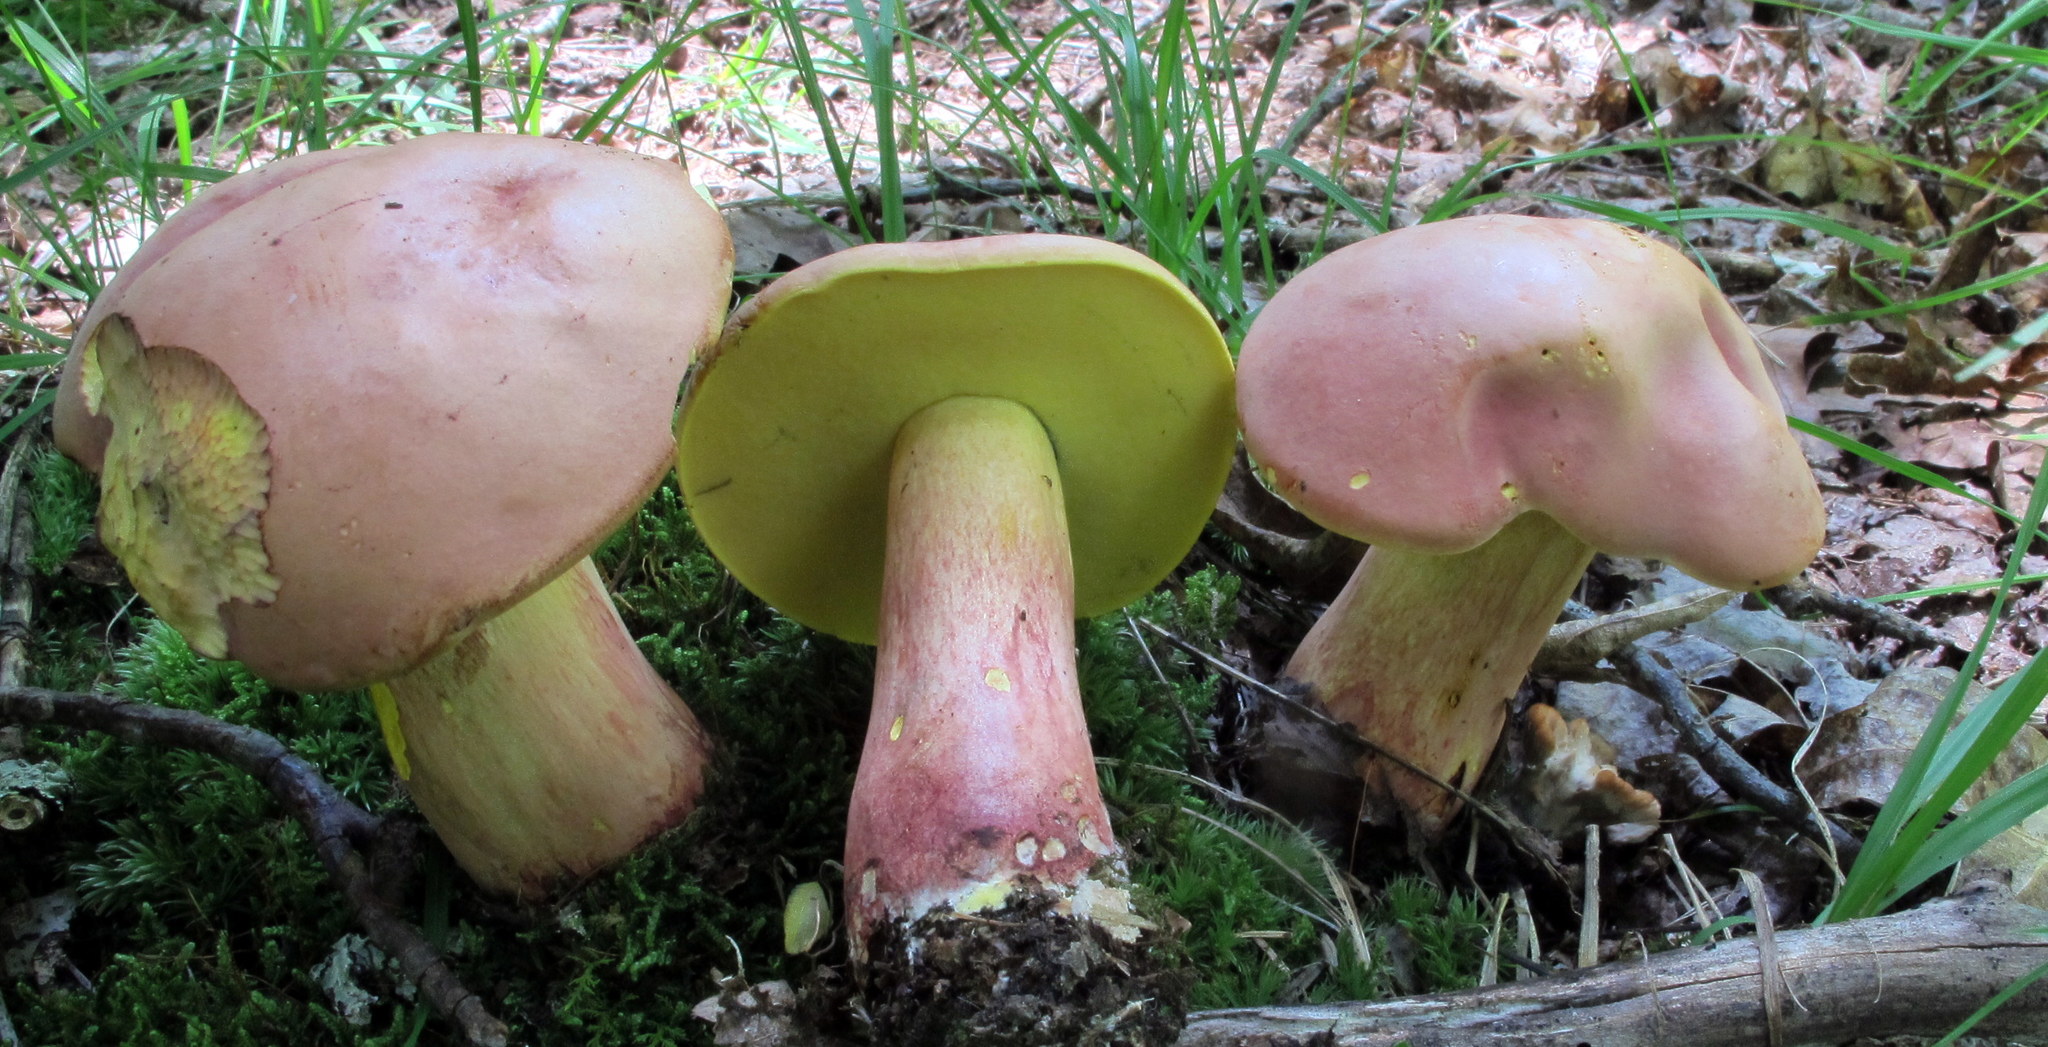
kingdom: Fungi
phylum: Basidiomycota
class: Agaricomycetes
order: Boletales
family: Boletaceae
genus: Lanmaoa
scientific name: Lanmaoa pallidorosea
